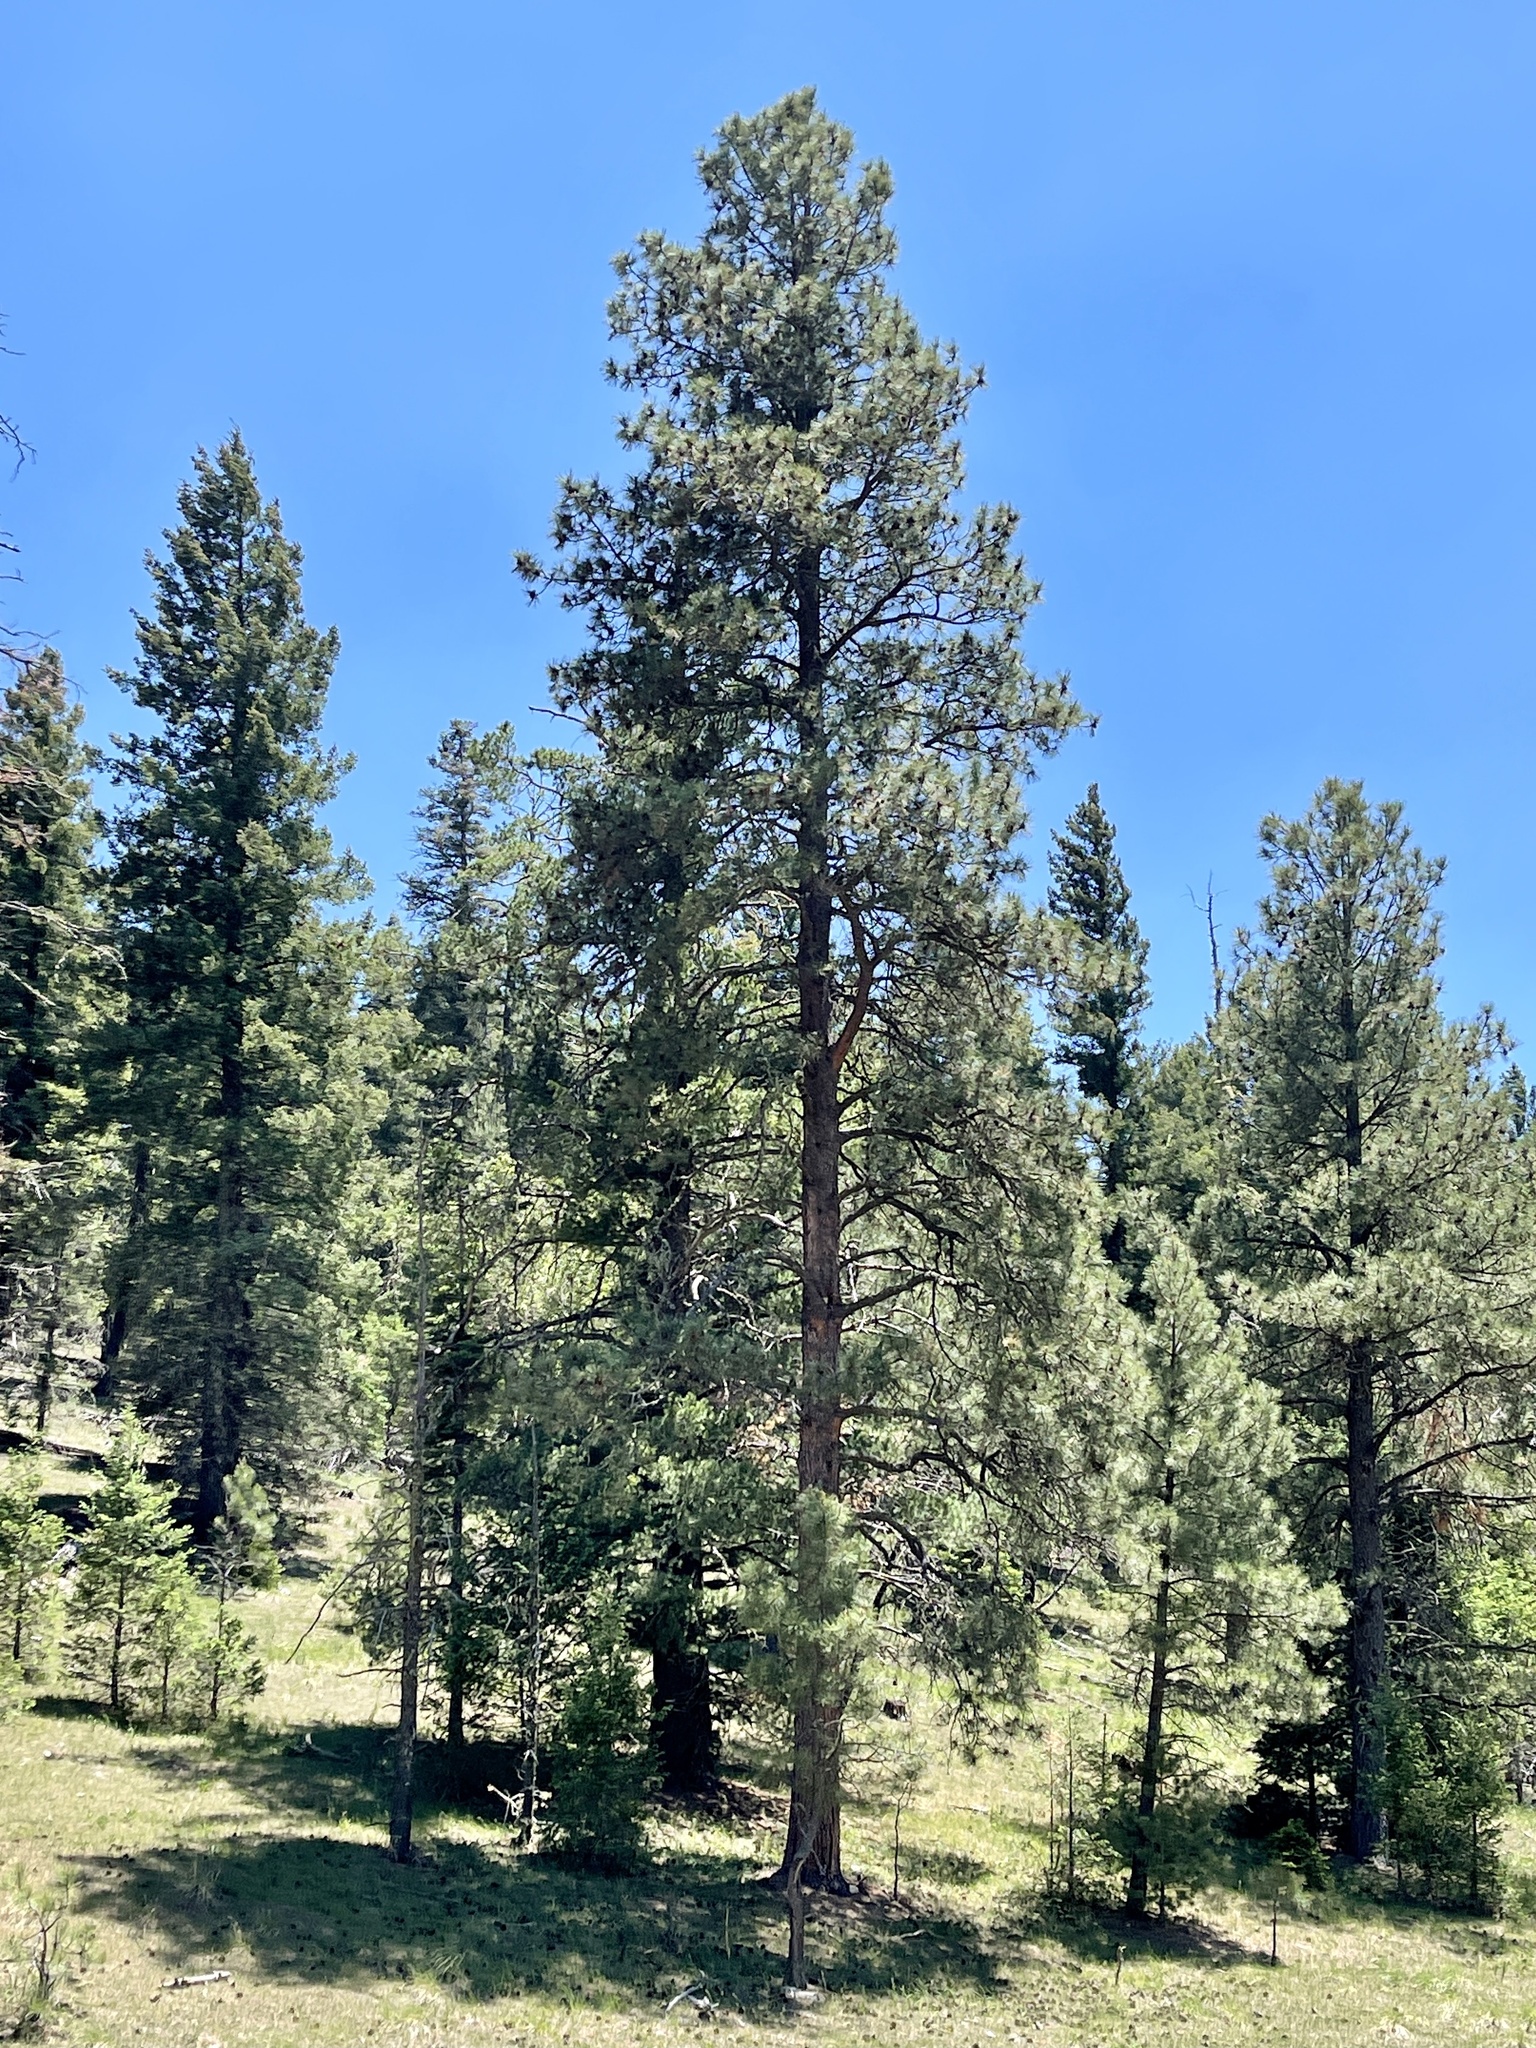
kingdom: Plantae
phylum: Tracheophyta
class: Pinopsida
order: Pinales
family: Pinaceae
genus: Pinus
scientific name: Pinus ponderosa
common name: Western yellow-pine
